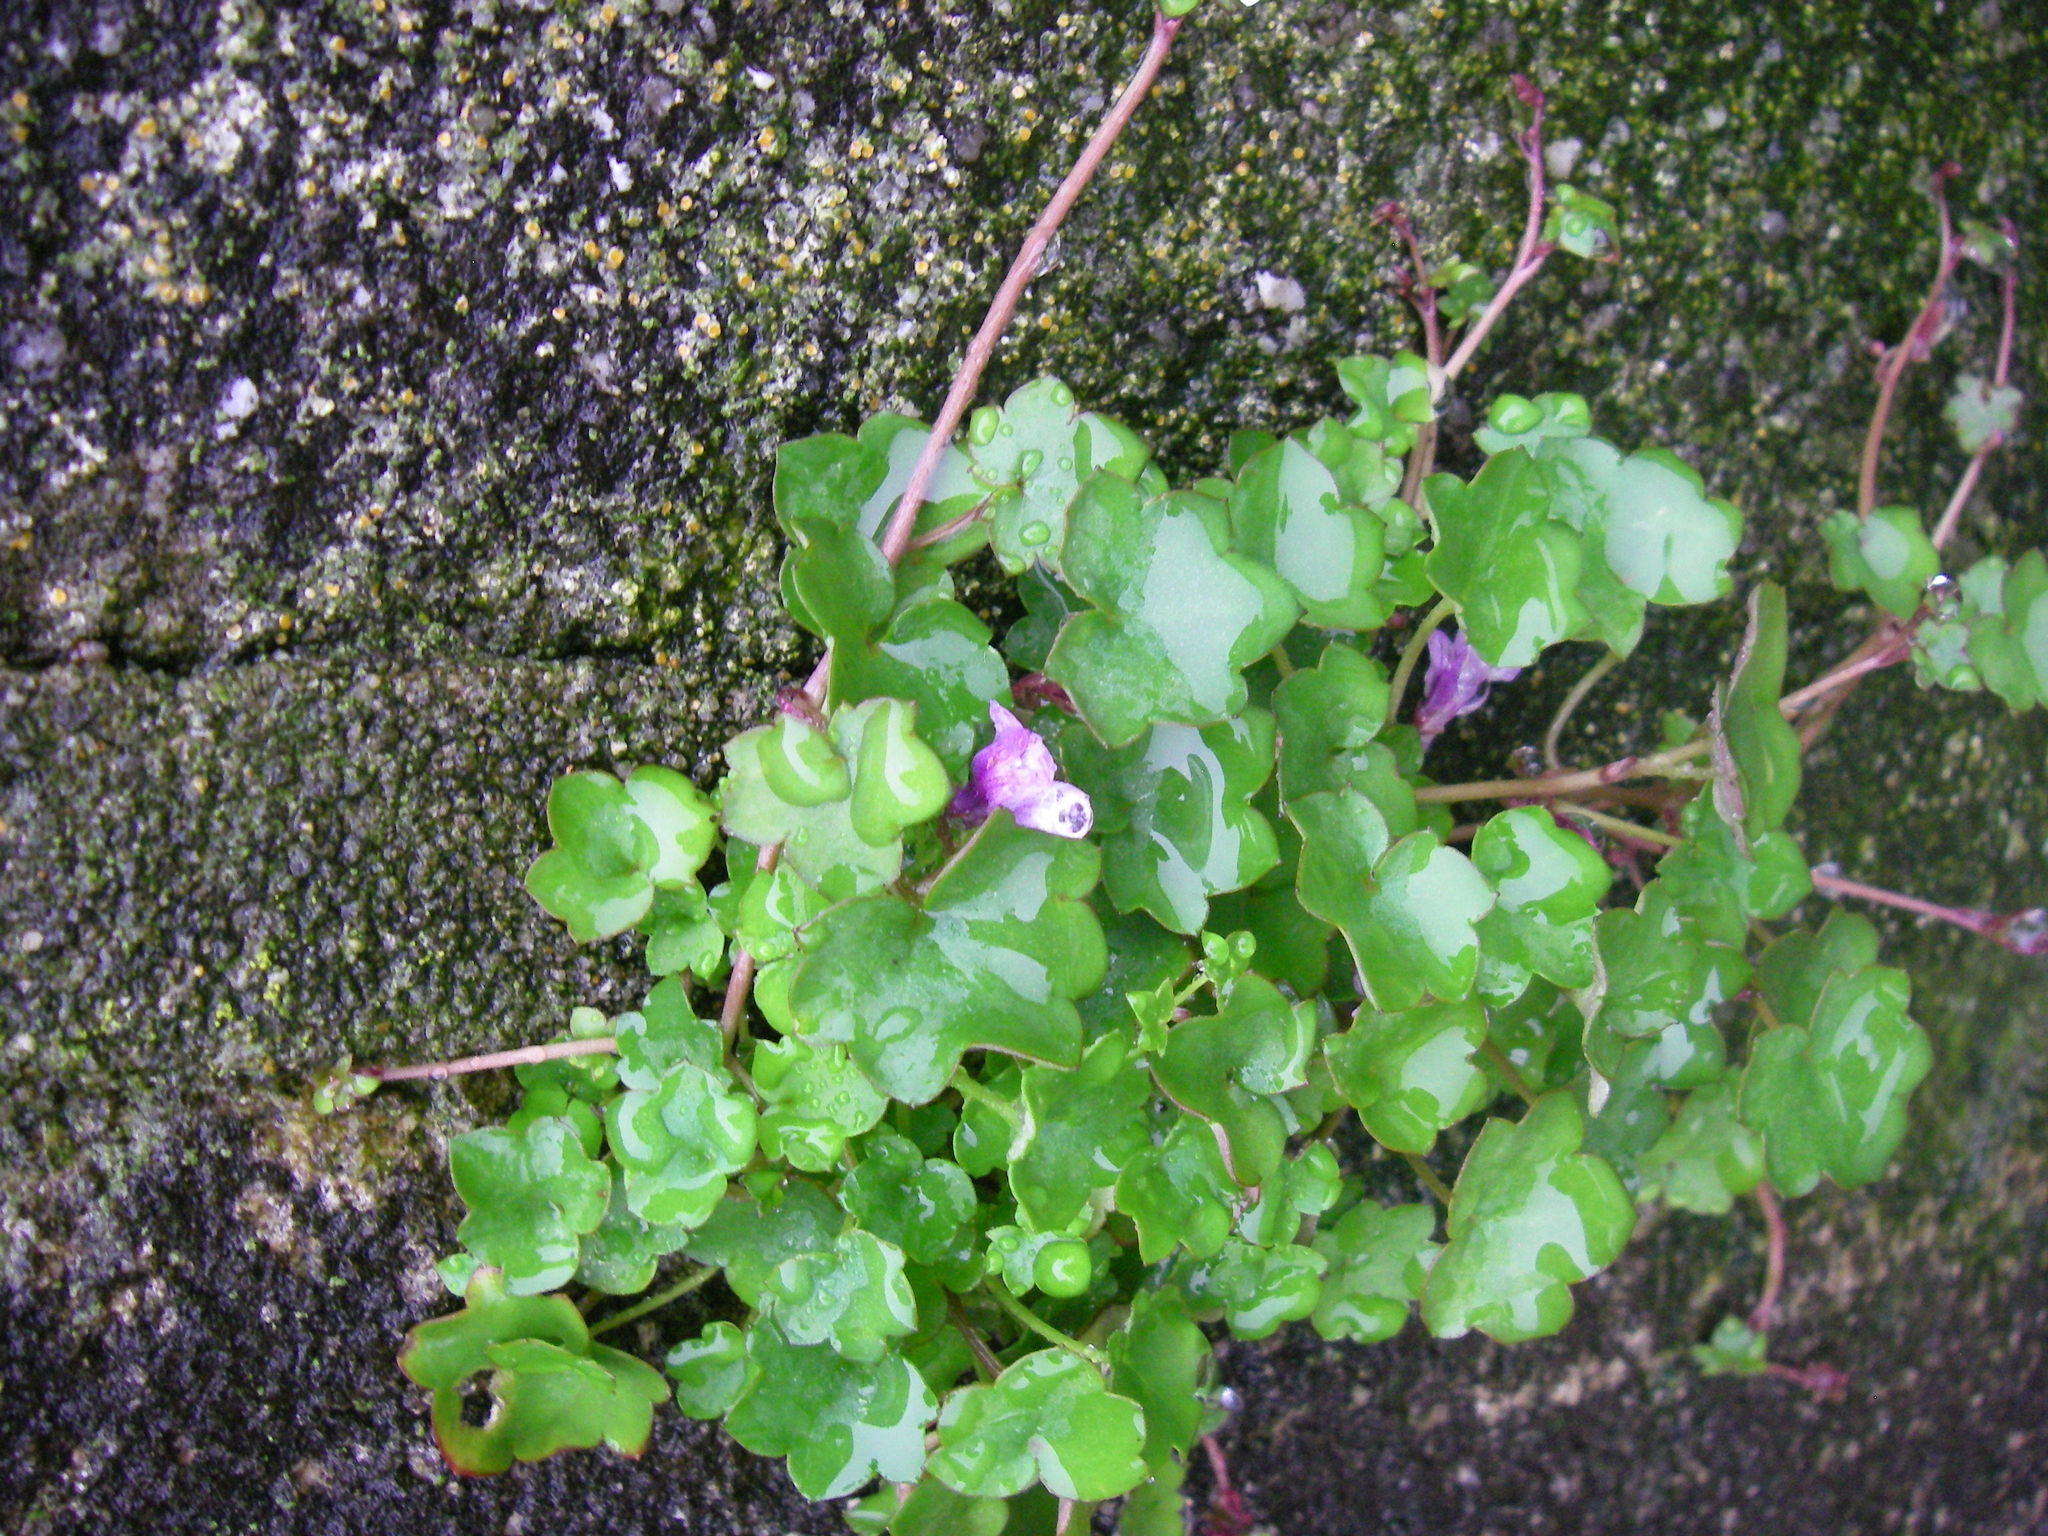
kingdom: Plantae
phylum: Tracheophyta
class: Magnoliopsida
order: Lamiales
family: Plantaginaceae
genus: Cymbalaria
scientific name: Cymbalaria muralis
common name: Ivy-leaved toadflax
